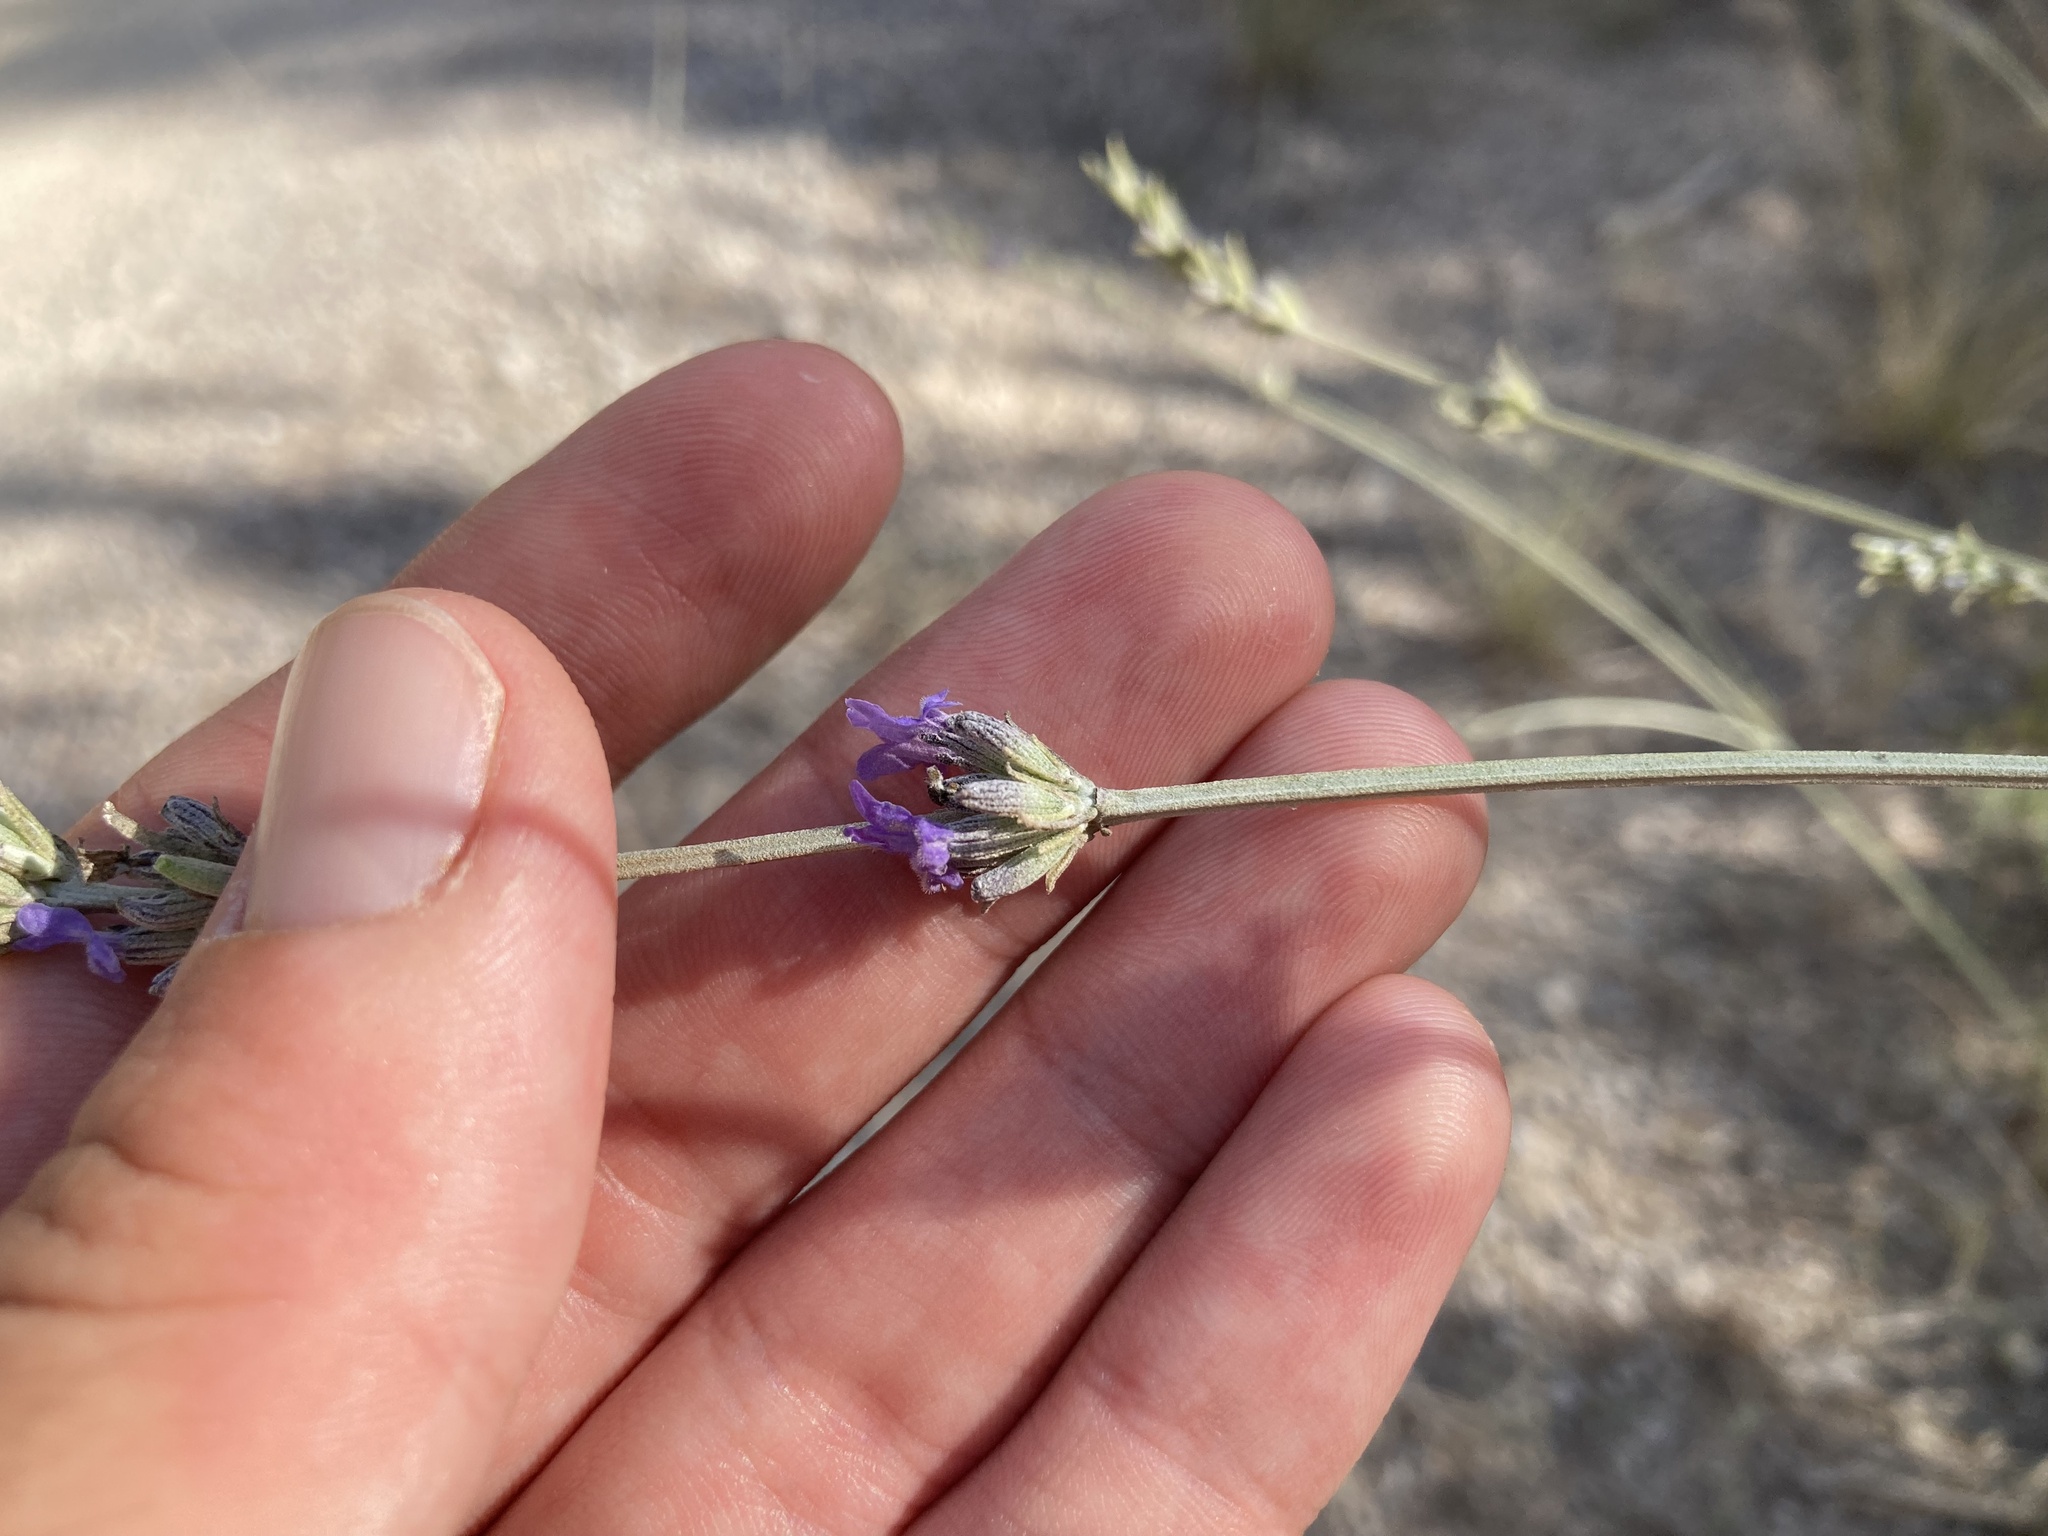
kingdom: Plantae
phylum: Tracheophyta
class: Magnoliopsida
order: Lamiales
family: Lamiaceae
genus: Lavandula
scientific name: Lavandula latifolia
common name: Spike lavendar
